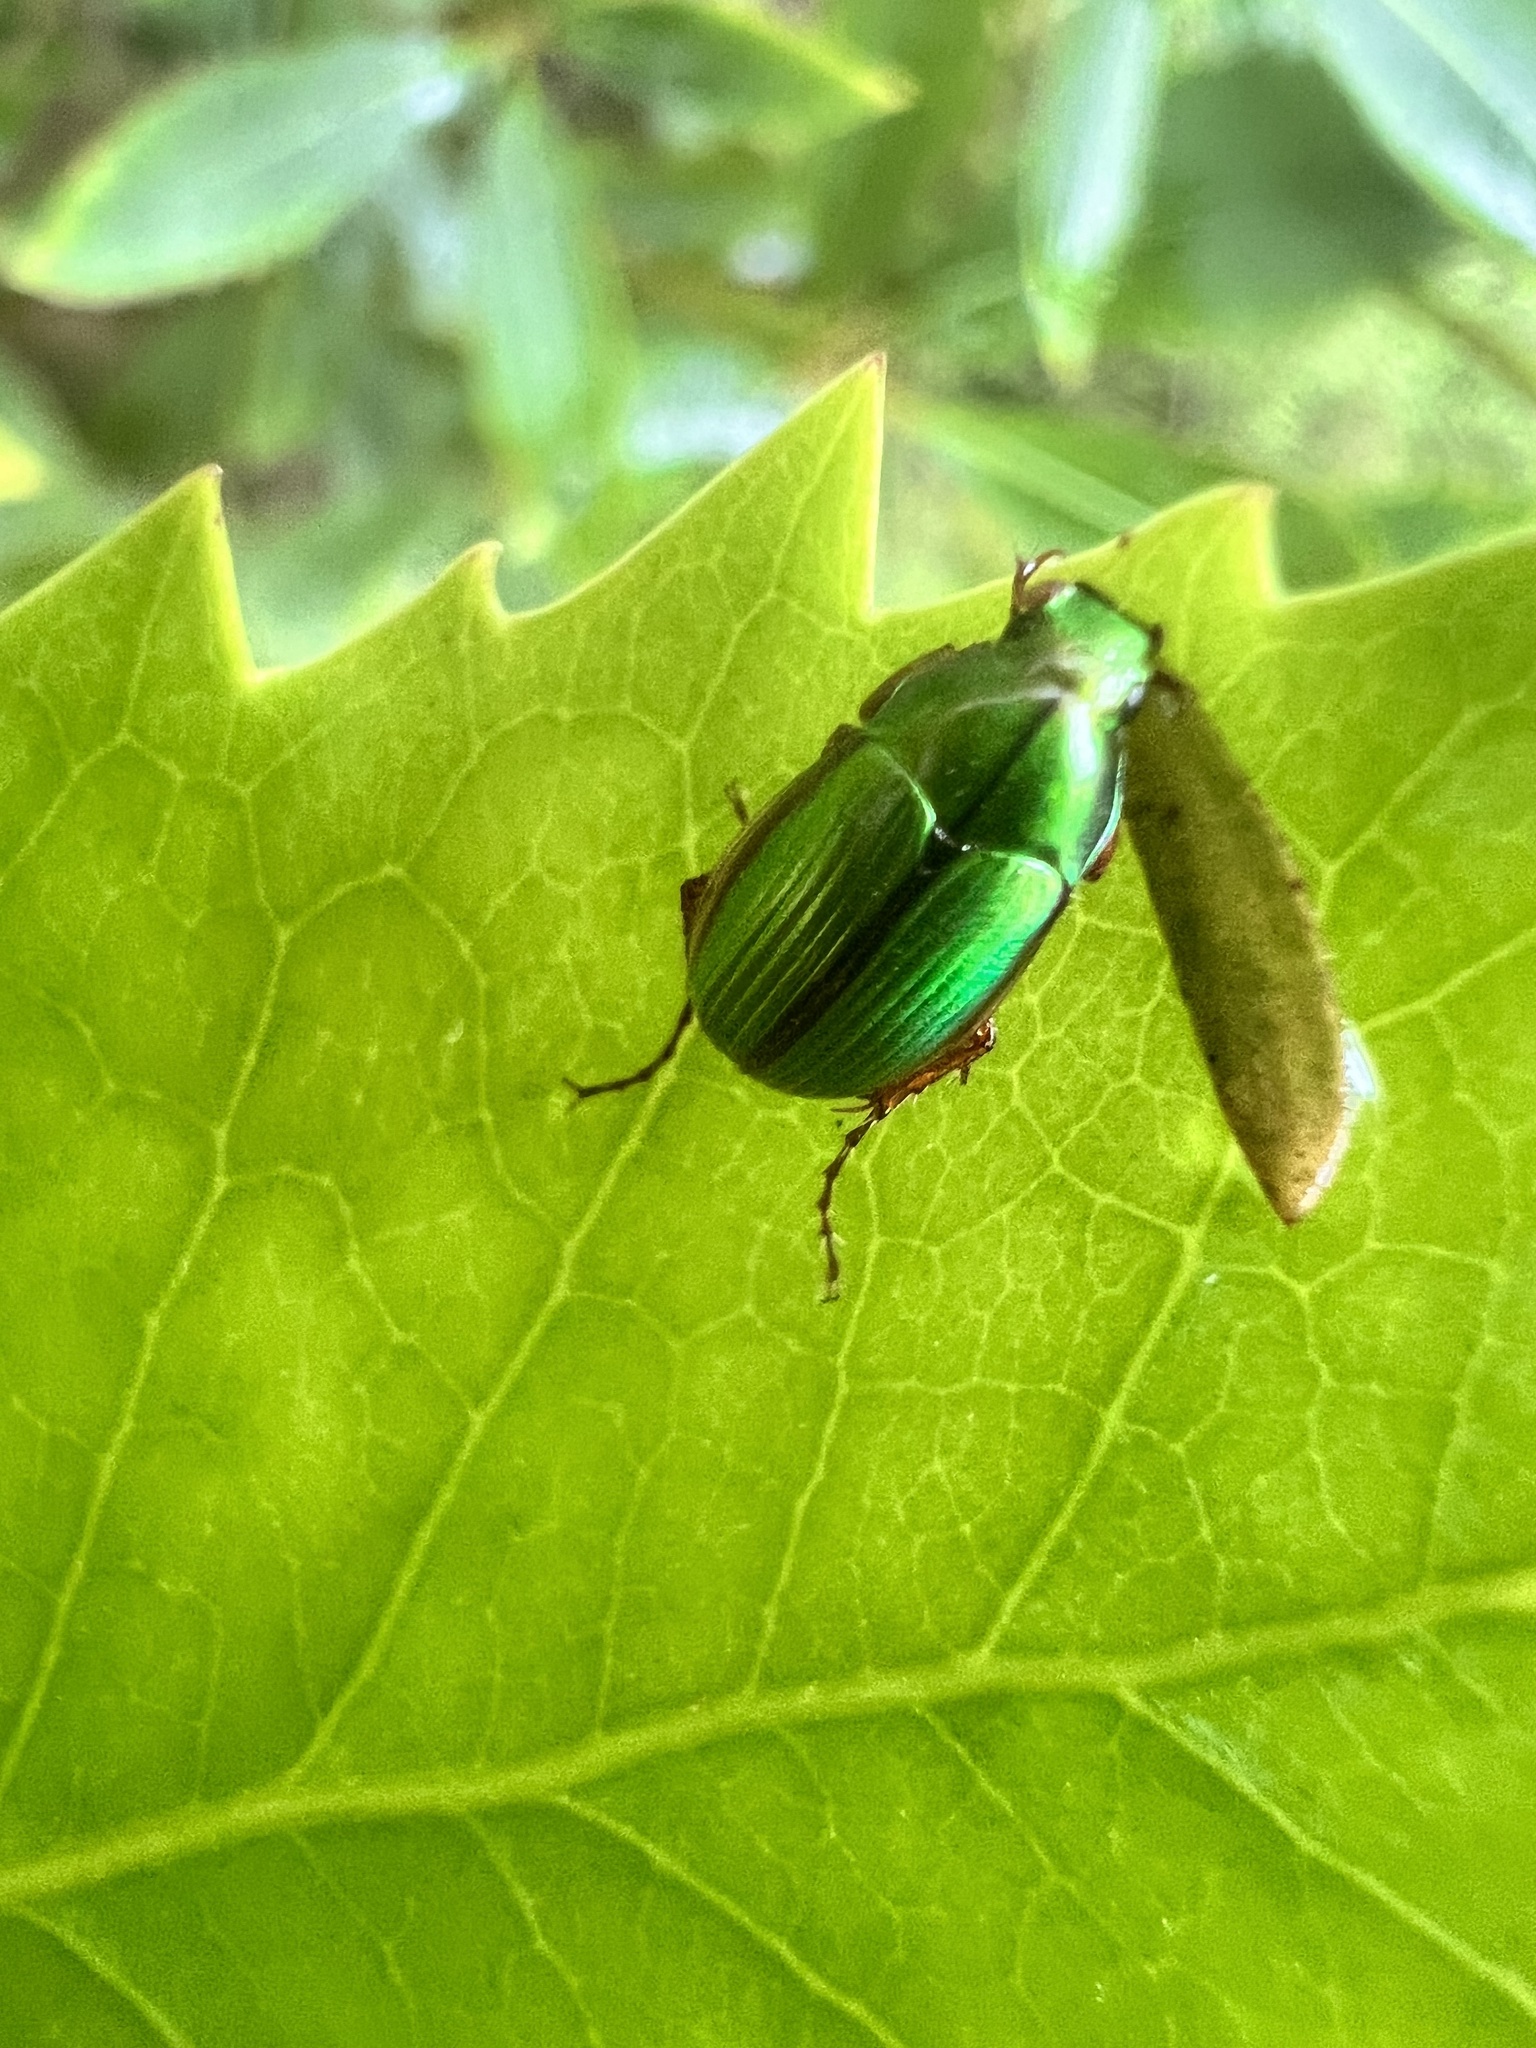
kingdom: Animalia
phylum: Arthropoda
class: Insecta
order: Coleoptera
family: Scarabaeidae
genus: Pyronota
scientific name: Pyronota festiva
